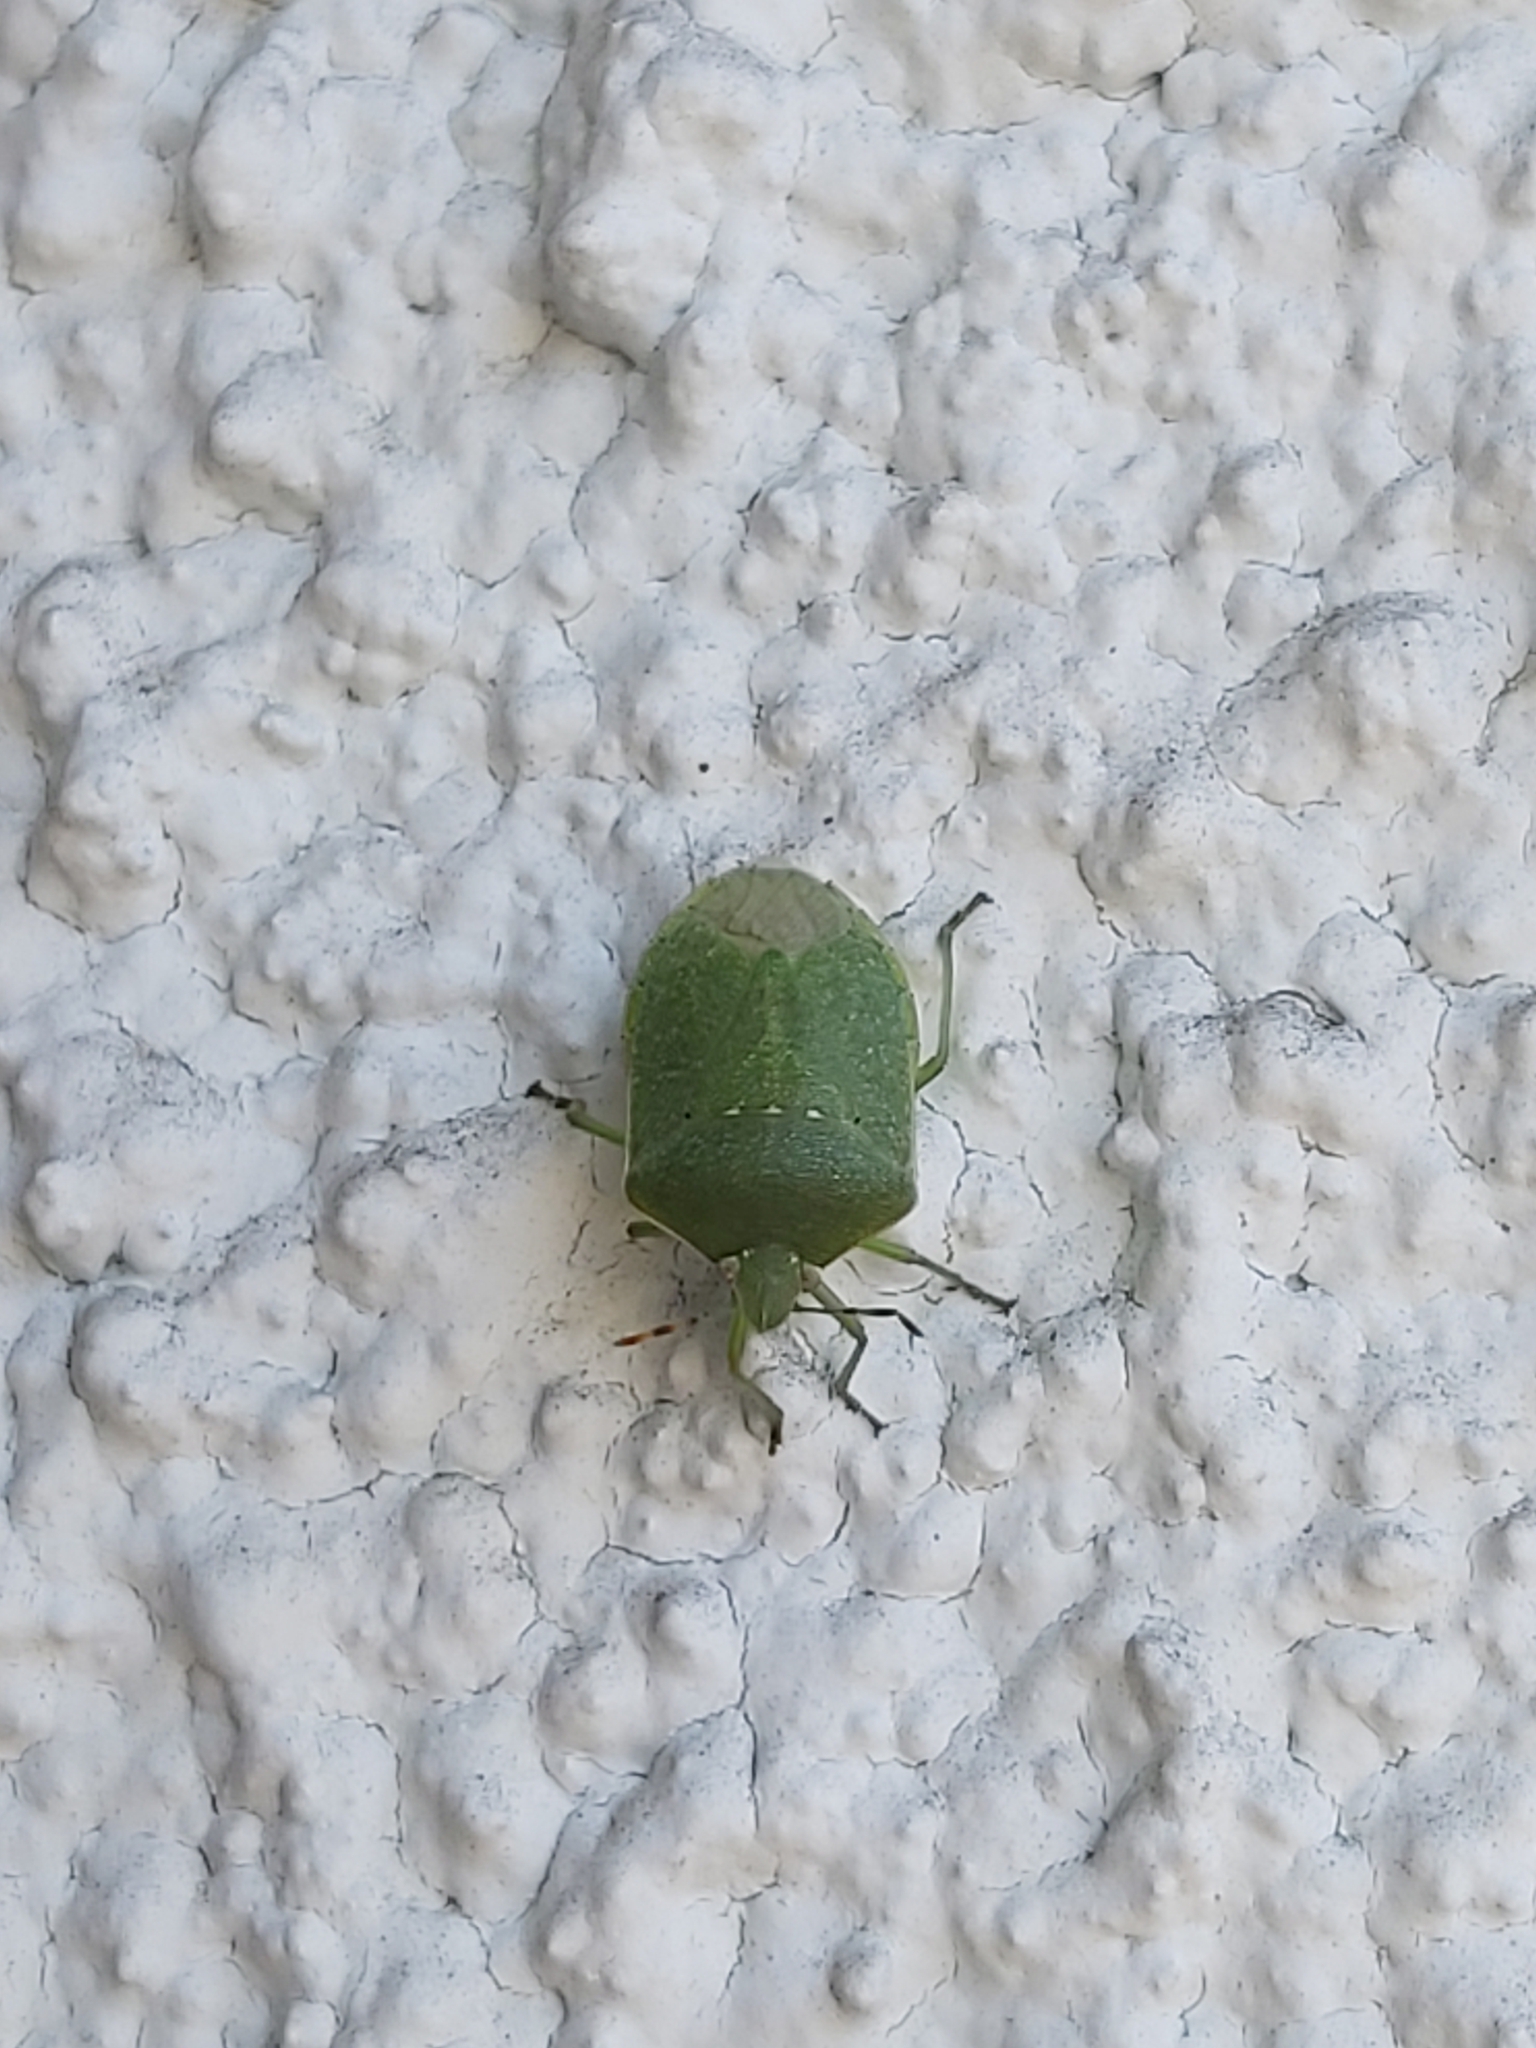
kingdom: Animalia
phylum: Arthropoda
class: Insecta
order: Hemiptera
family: Pentatomidae
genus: Nezara
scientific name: Nezara viridula
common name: Southern green stink bug
